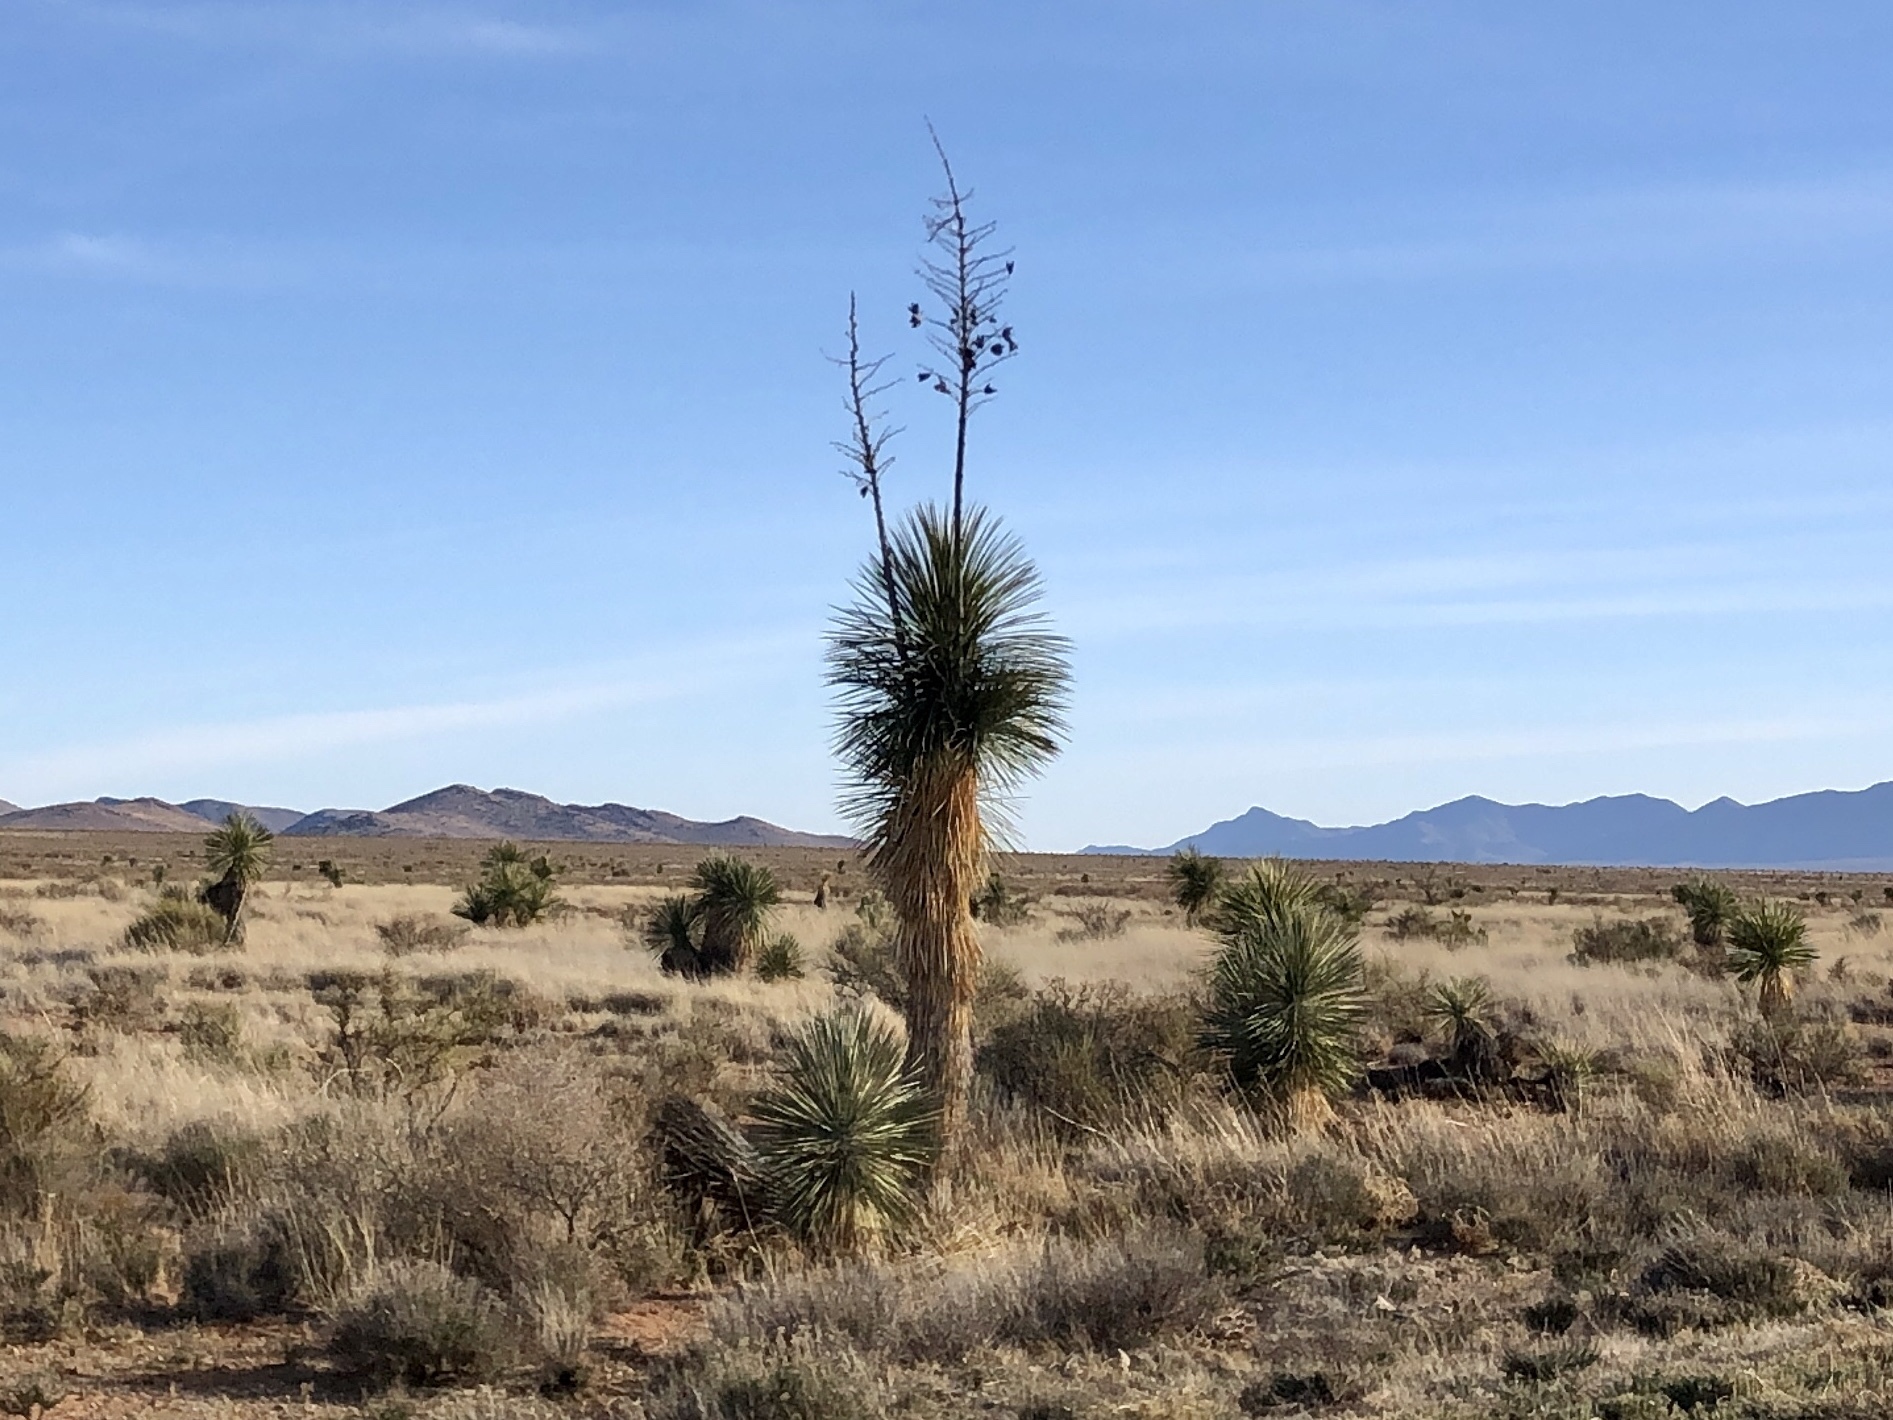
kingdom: Plantae
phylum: Tracheophyta
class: Liliopsida
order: Asparagales
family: Asparagaceae
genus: Yucca
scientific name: Yucca elata
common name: Palmella
